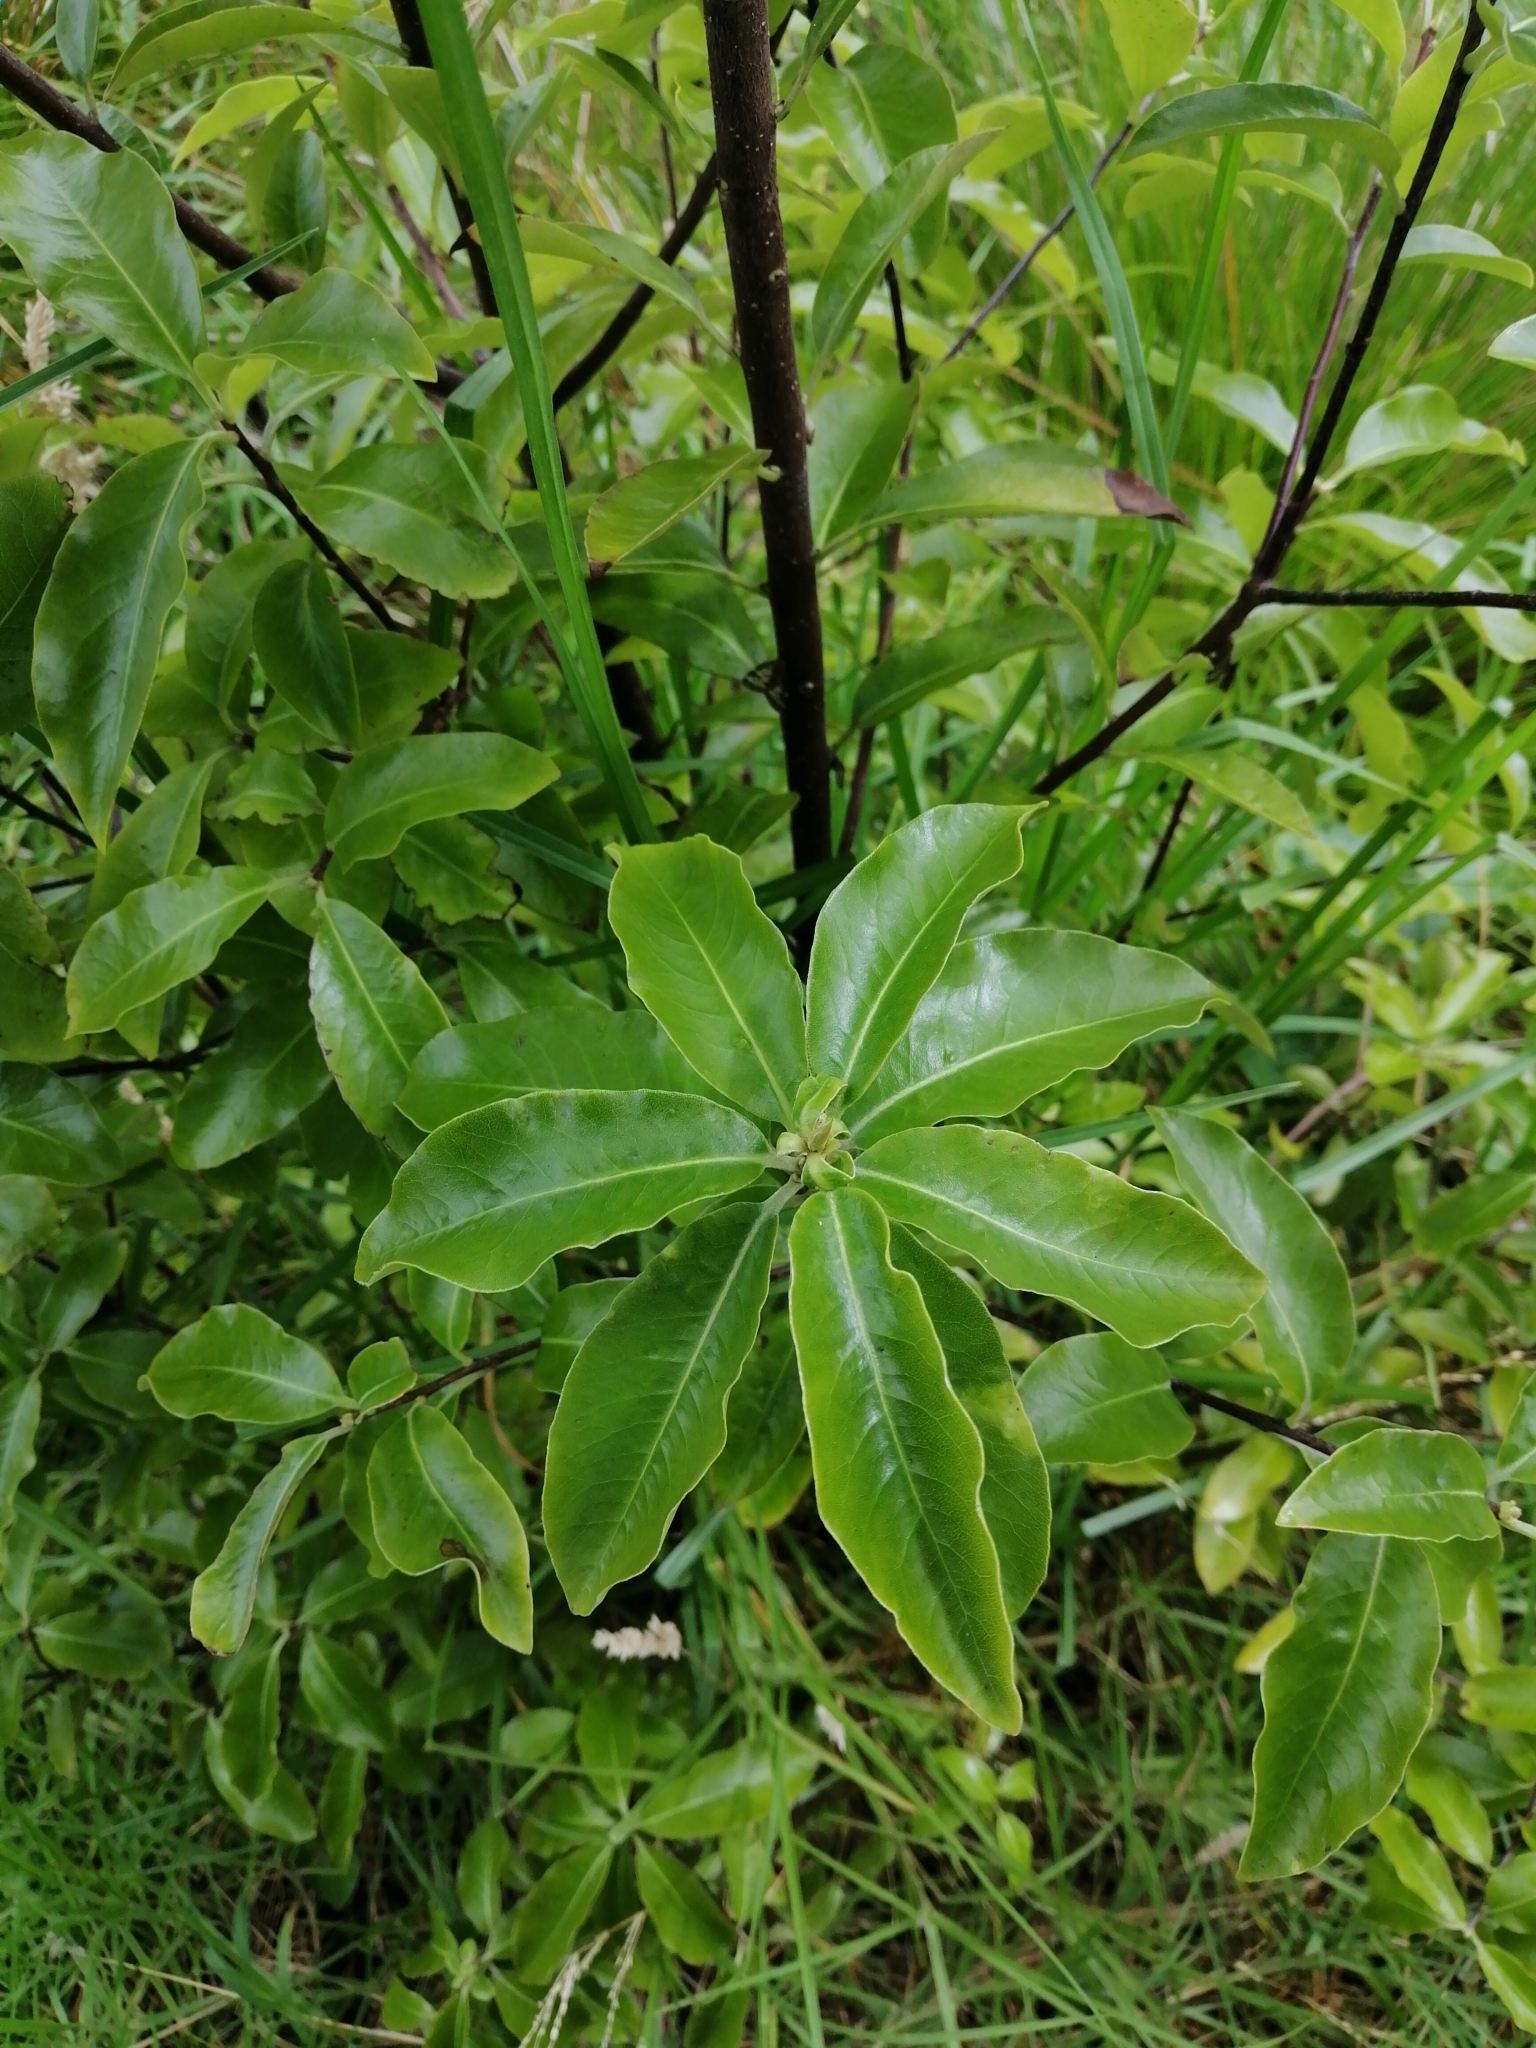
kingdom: Plantae
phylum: Tracheophyta
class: Magnoliopsida
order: Apiales
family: Pittosporaceae
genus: Pittosporum
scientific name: Pittosporum tenuifolium
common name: Kohuhu
